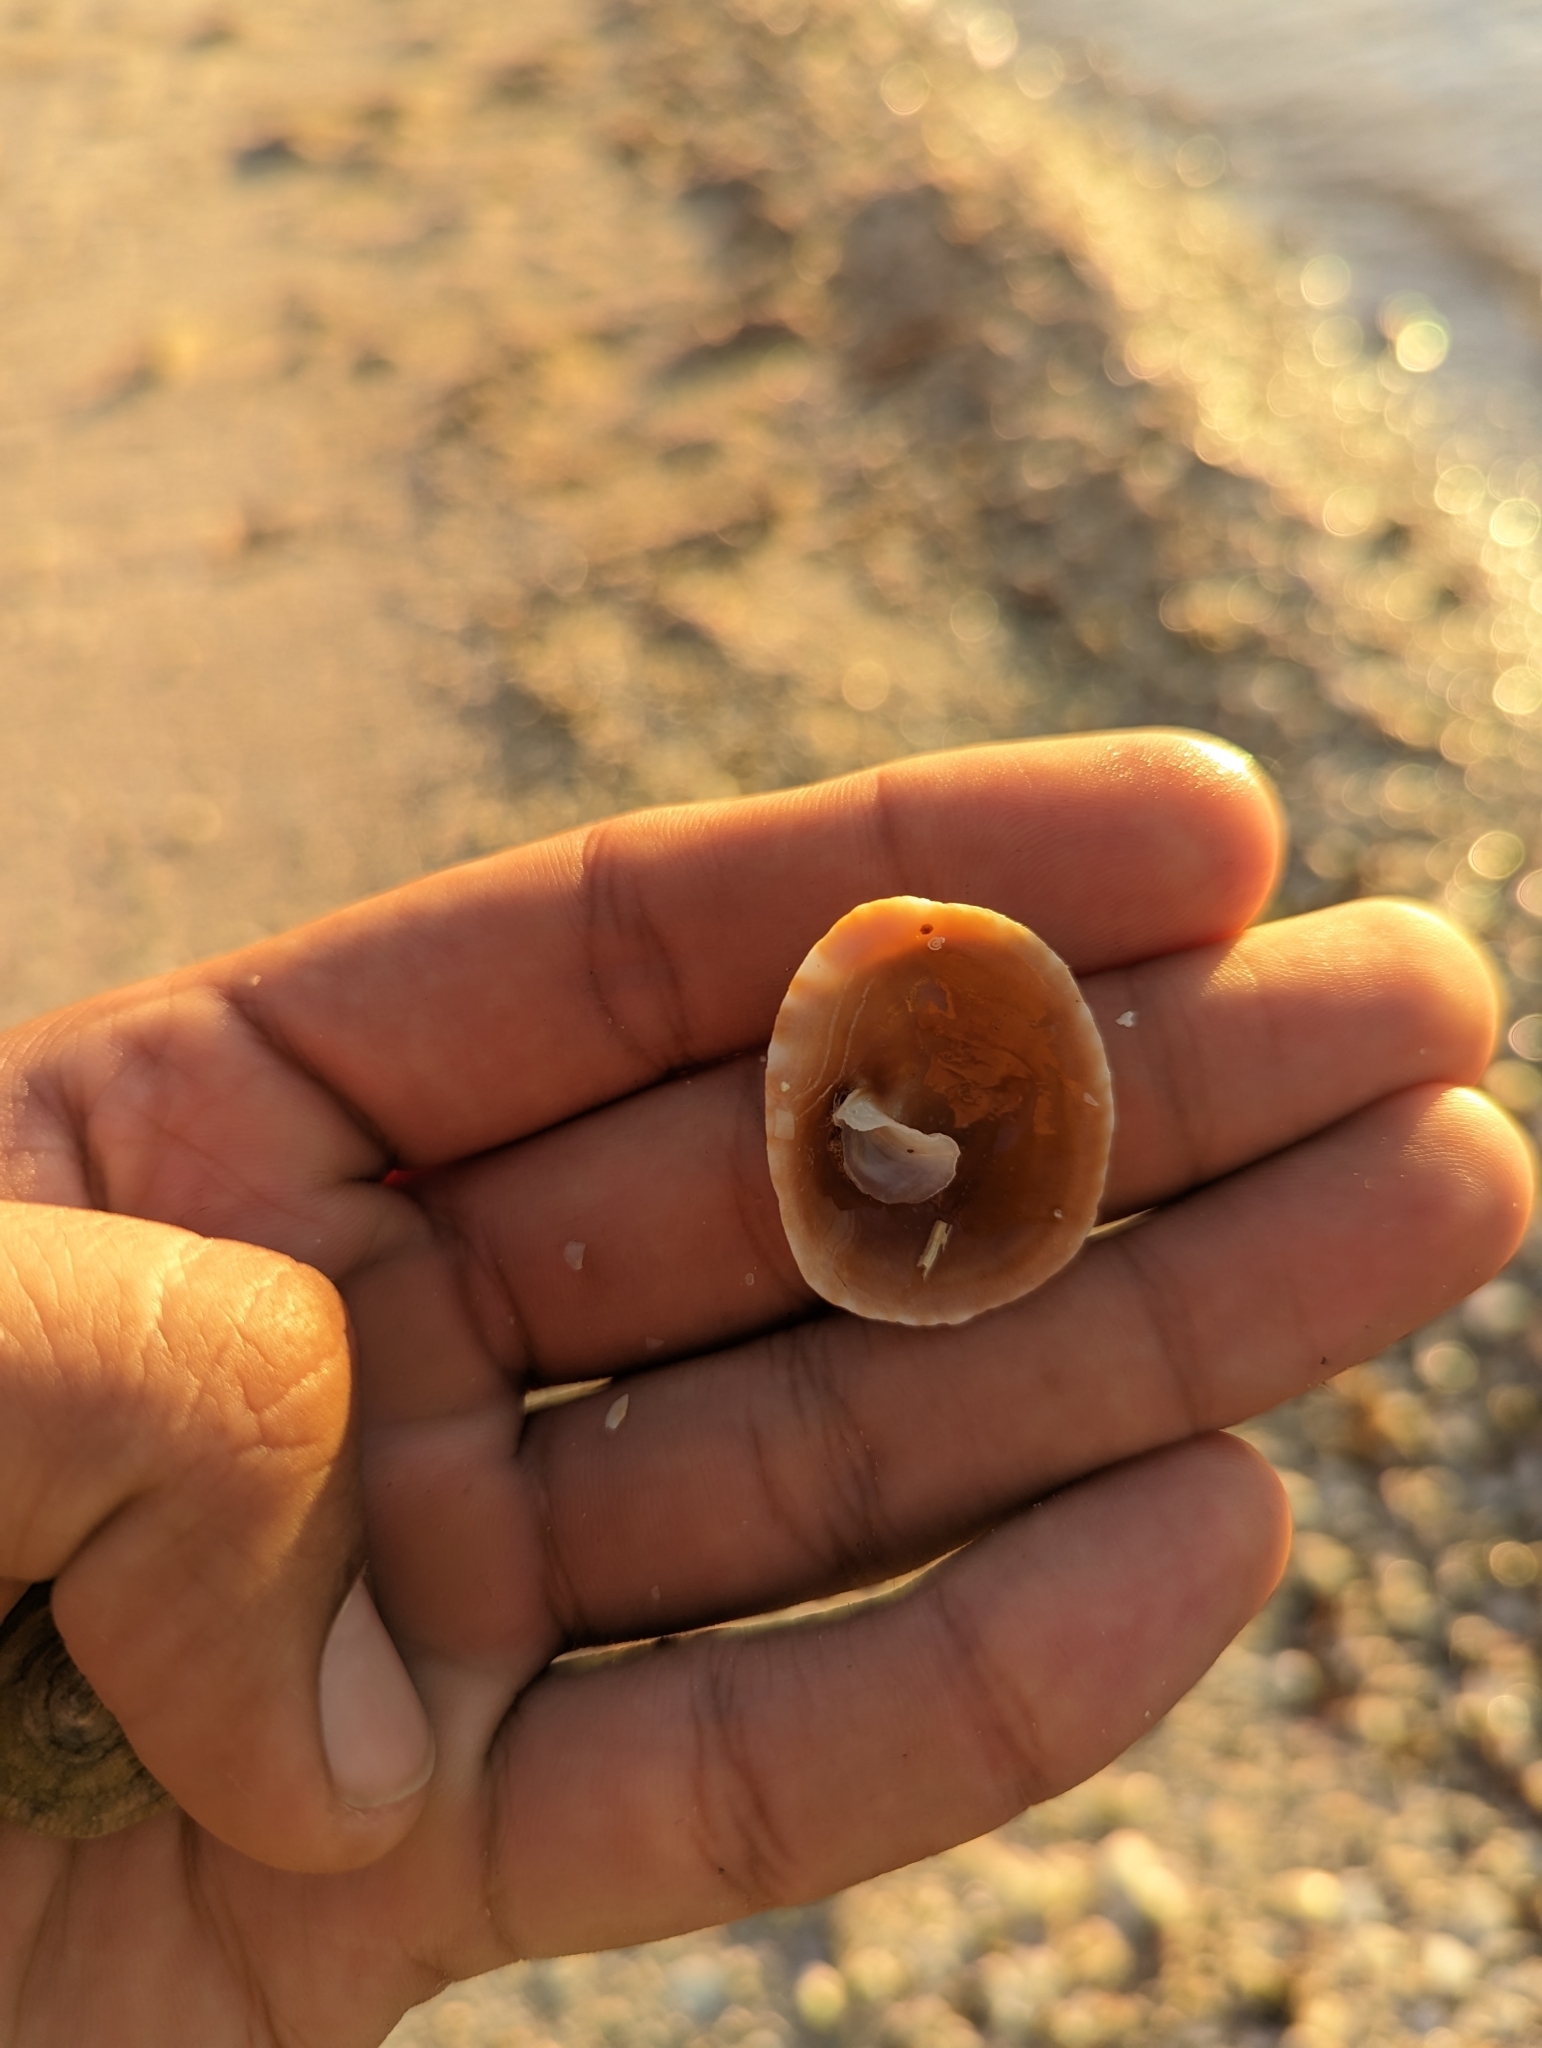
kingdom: Animalia
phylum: Mollusca
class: Gastropoda
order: Littorinimorpha
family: Calyptraeidae
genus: Crucibulum
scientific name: Crucibulum spinosum
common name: Spiny cup-and-saucer
